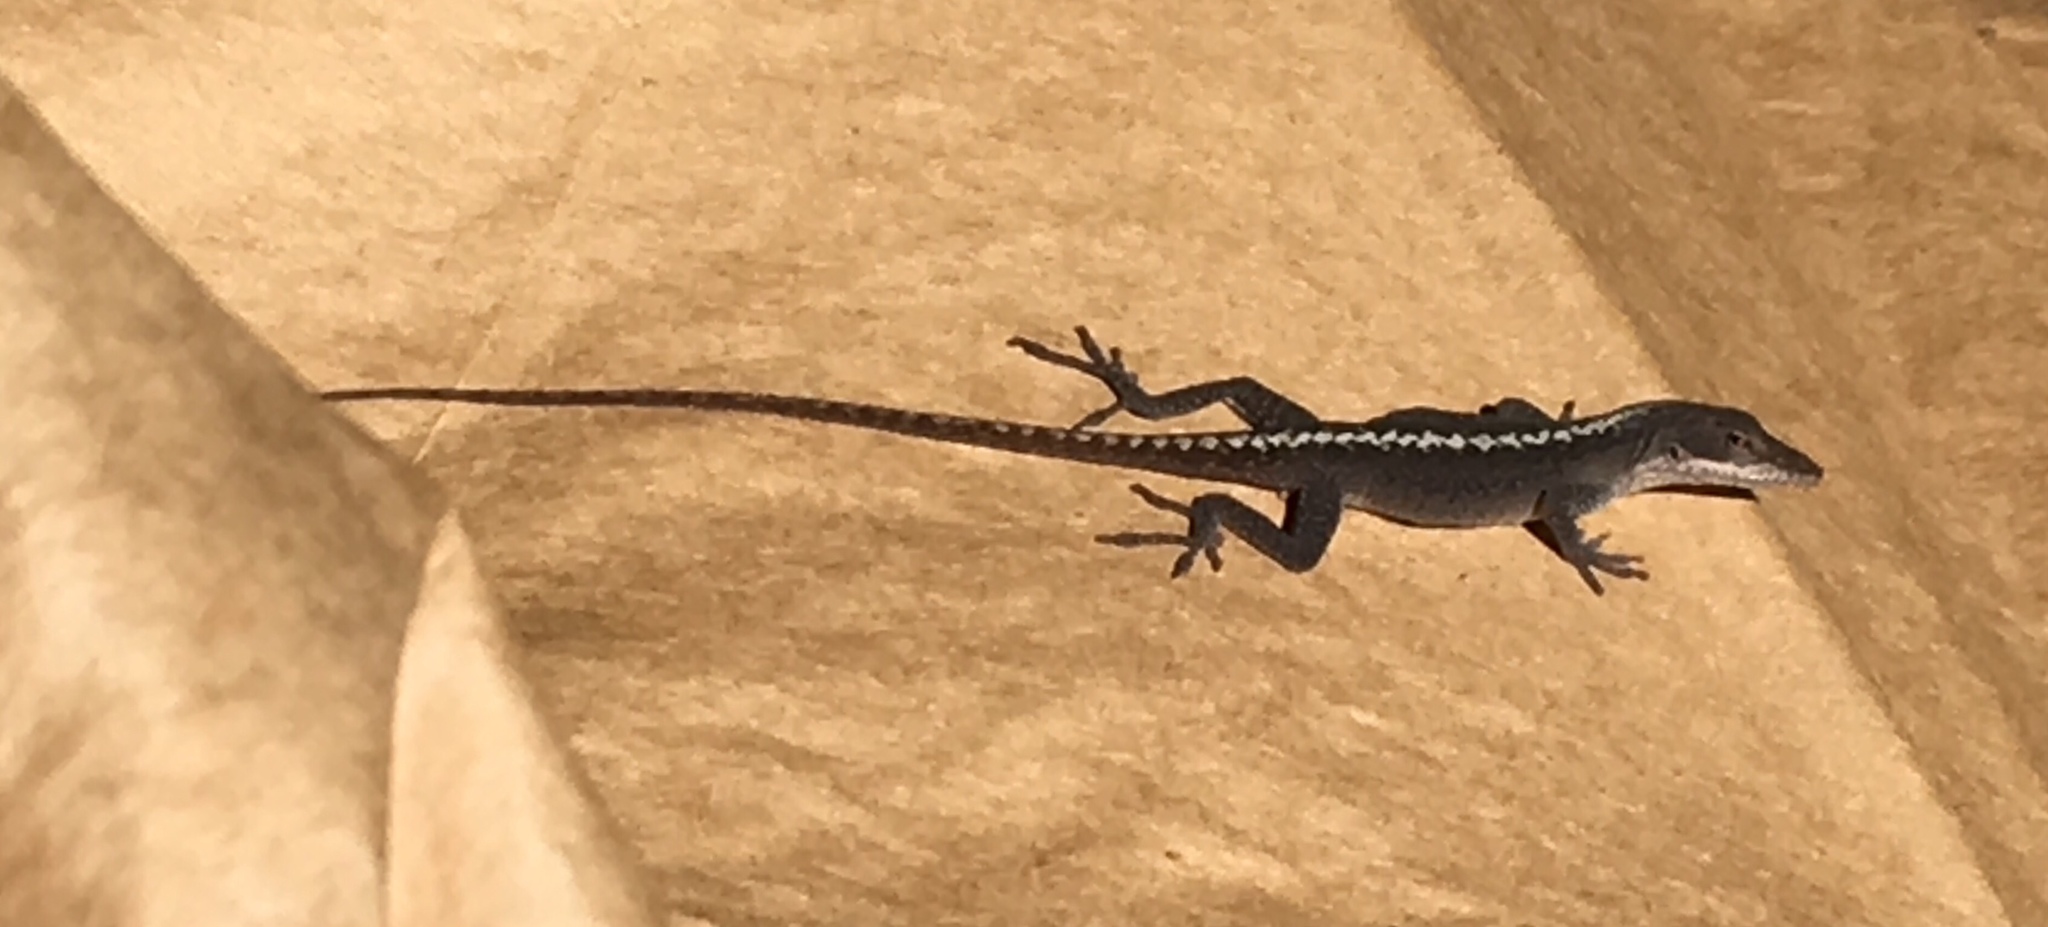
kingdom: Animalia
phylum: Chordata
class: Squamata
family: Dactyloidae
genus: Anolis
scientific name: Anolis carolinensis
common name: Green anole
